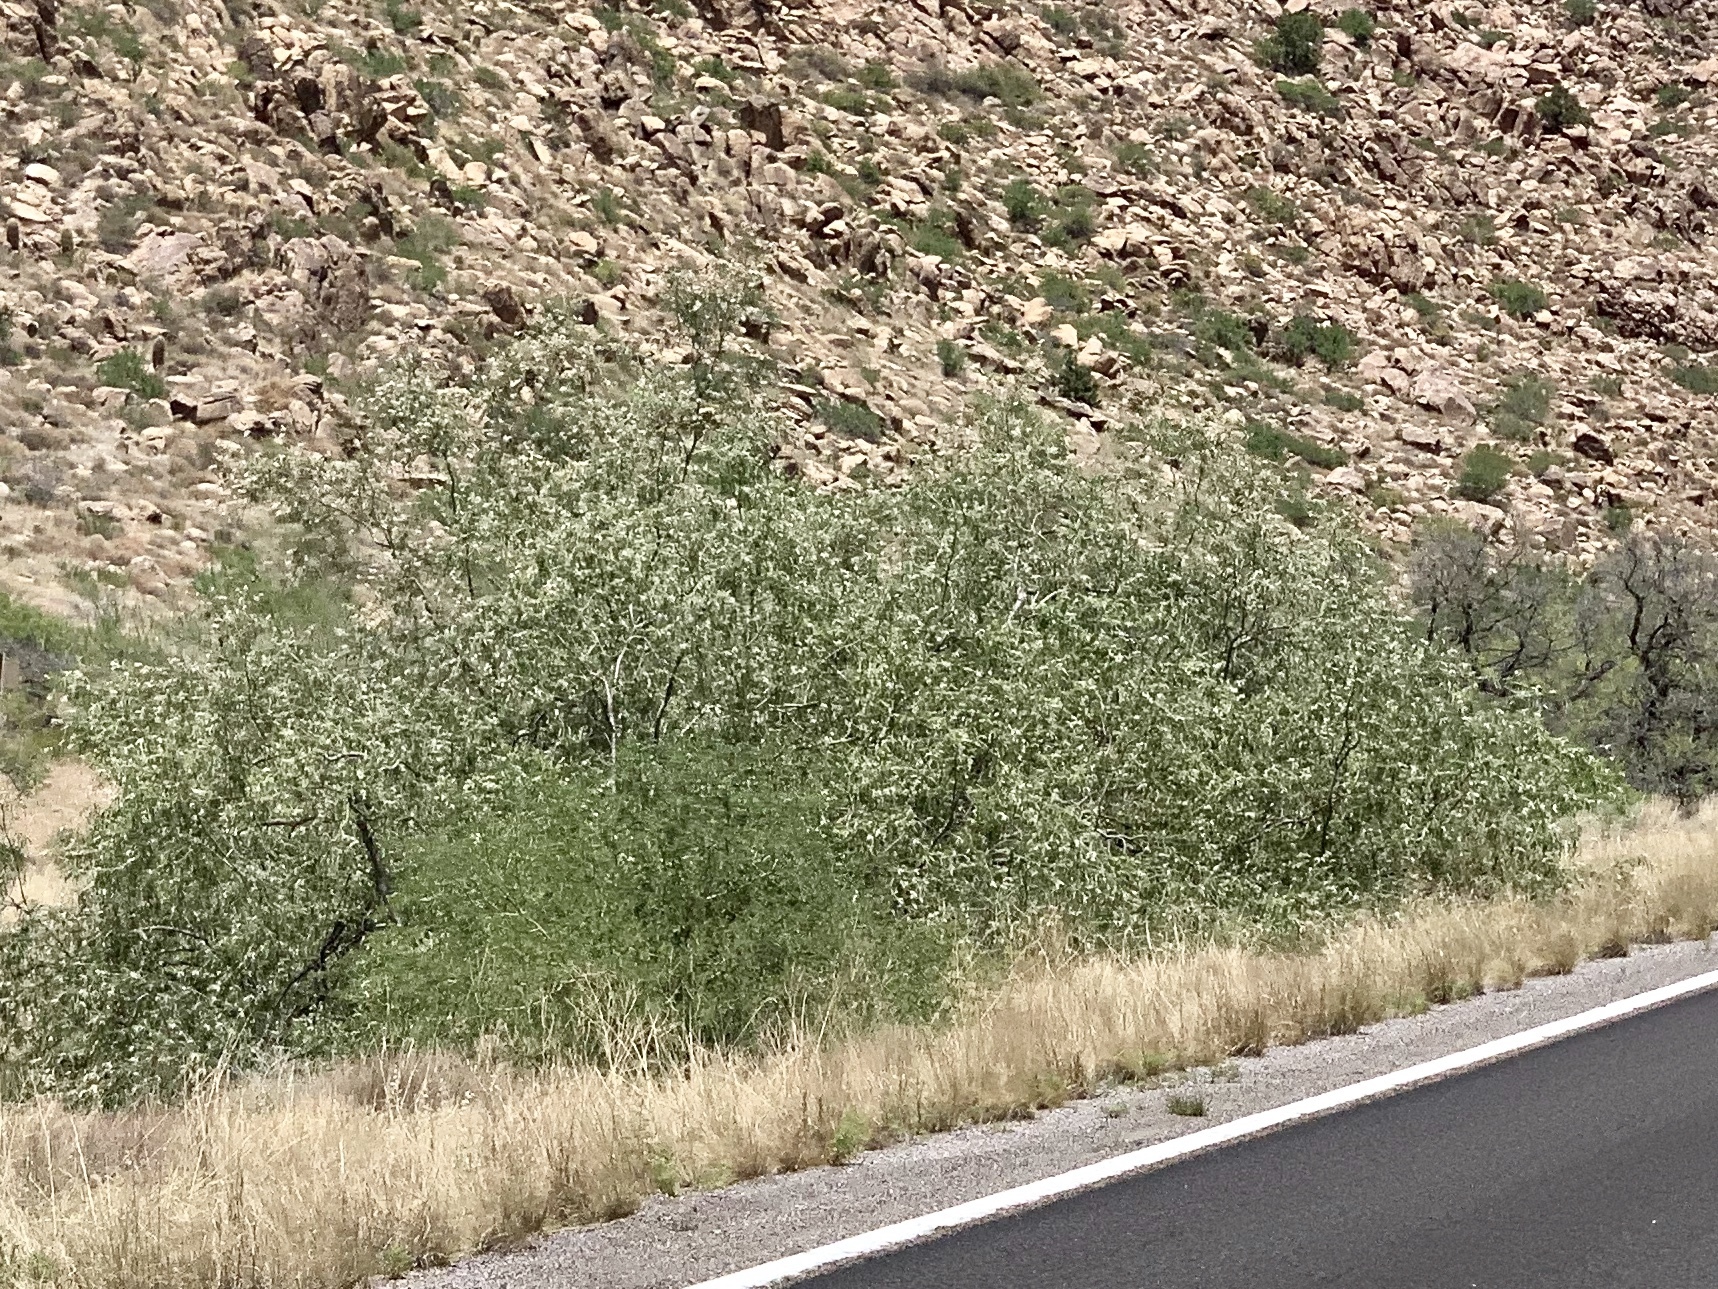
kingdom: Plantae
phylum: Tracheophyta
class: Magnoliopsida
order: Lamiales
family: Bignoniaceae
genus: Chilopsis
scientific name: Chilopsis linearis
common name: Desert-willow
